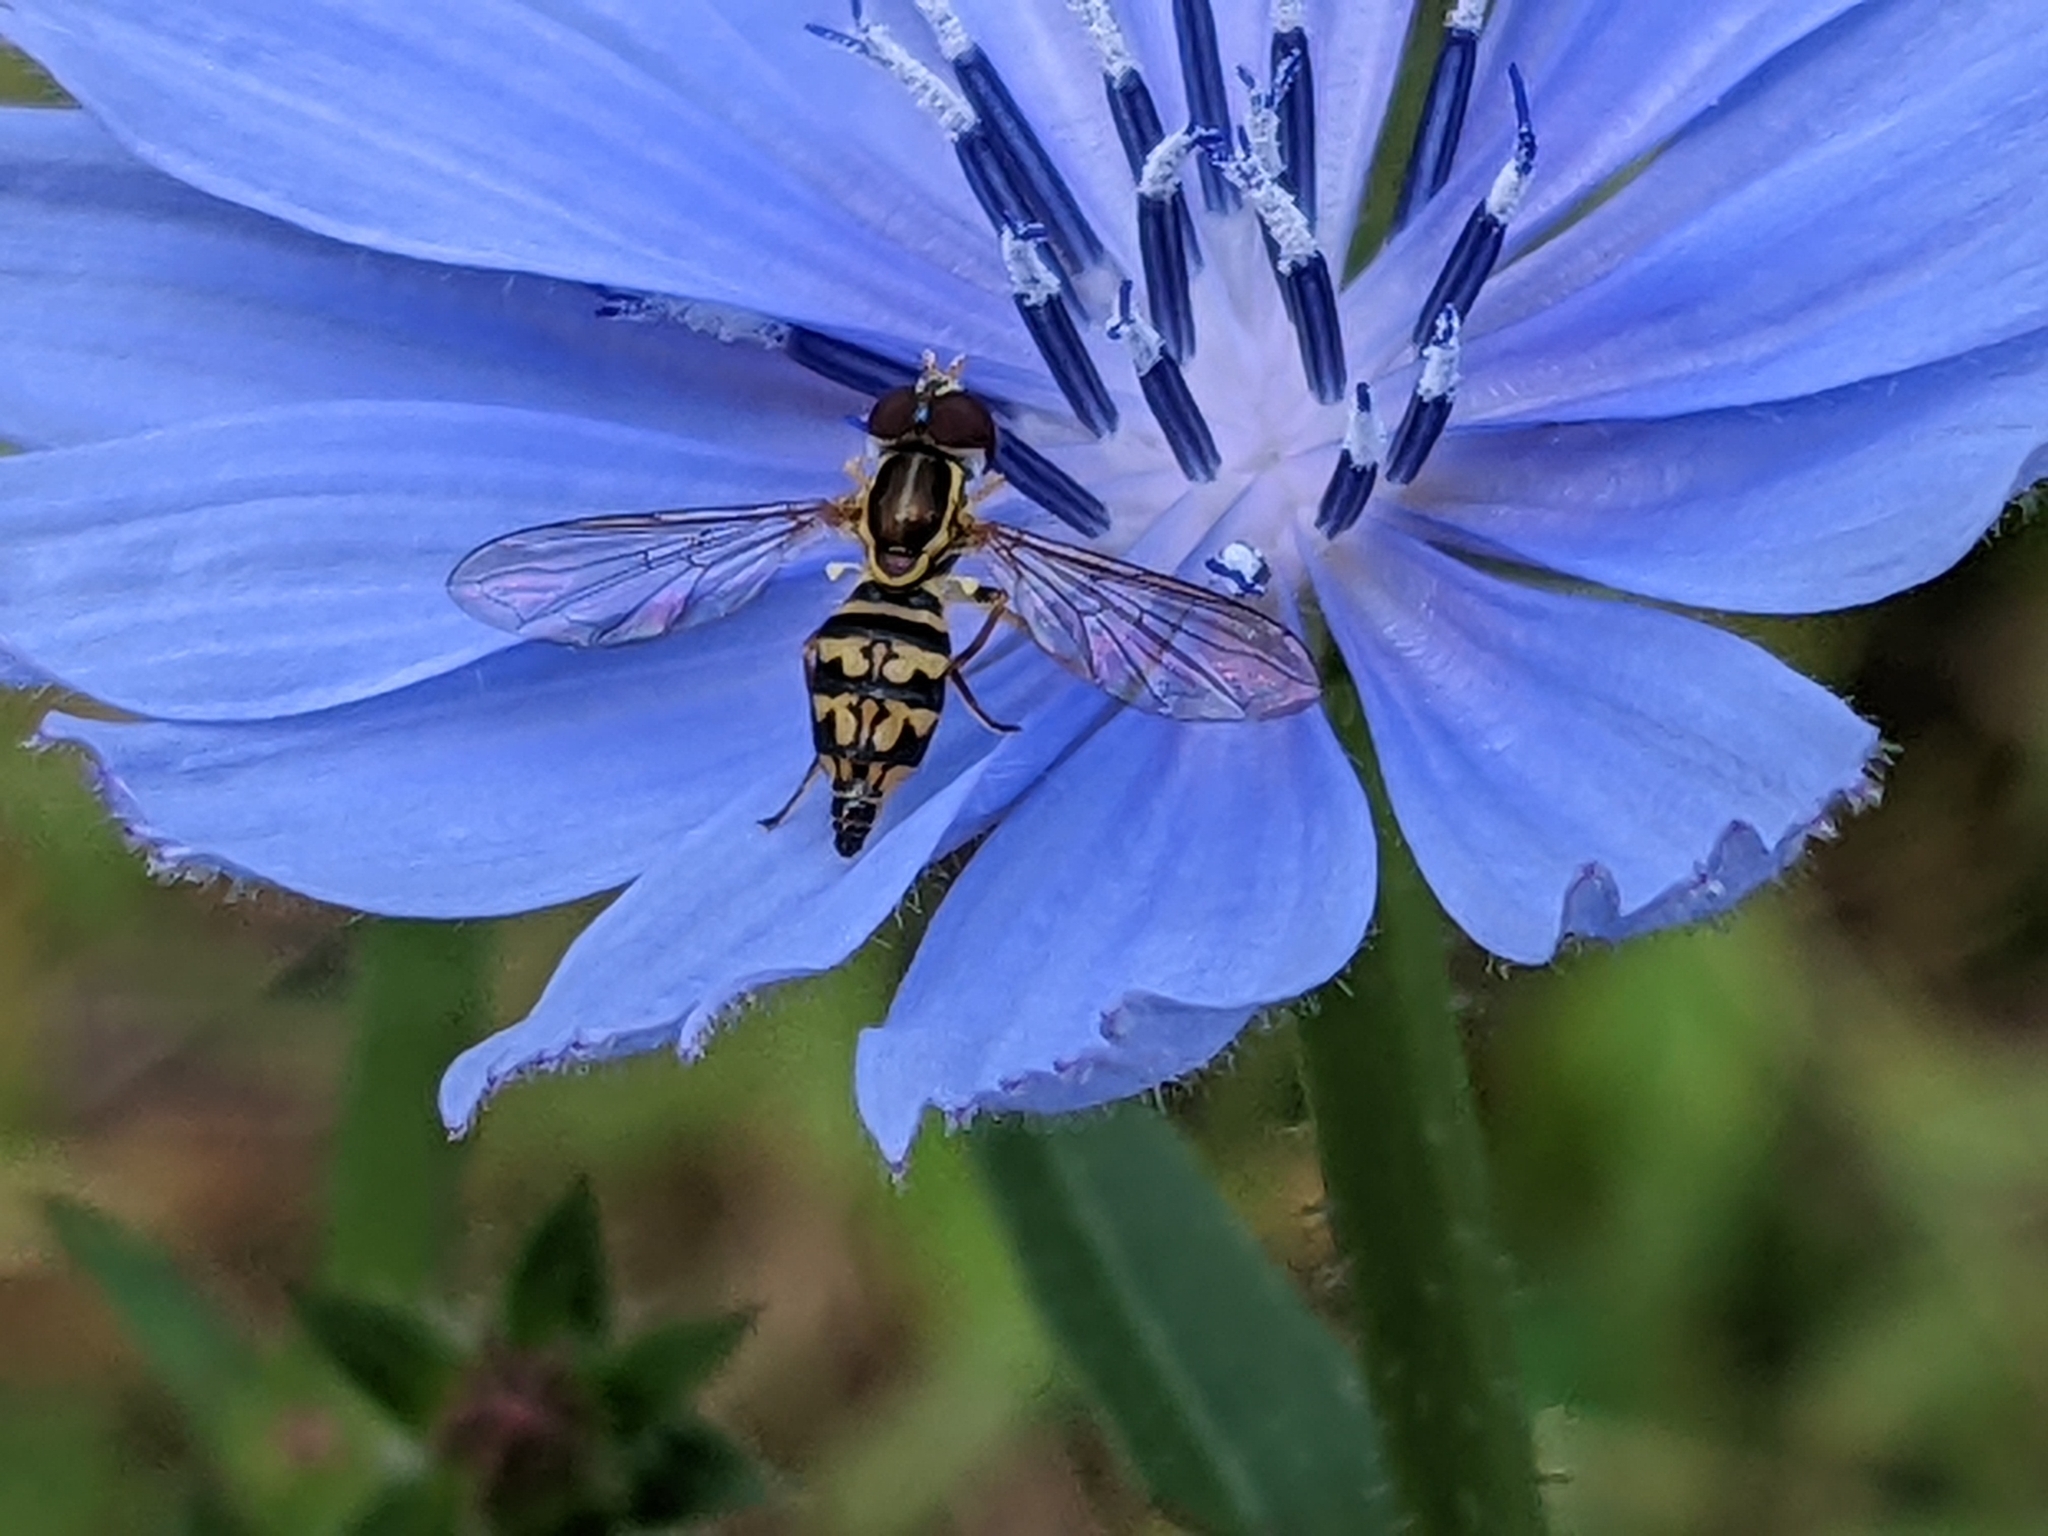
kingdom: Animalia
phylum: Arthropoda
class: Insecta
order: Diptera
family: Syrphidae
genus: Toxomerus
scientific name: Toxomerus geminatus
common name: Eastern calligrapher
